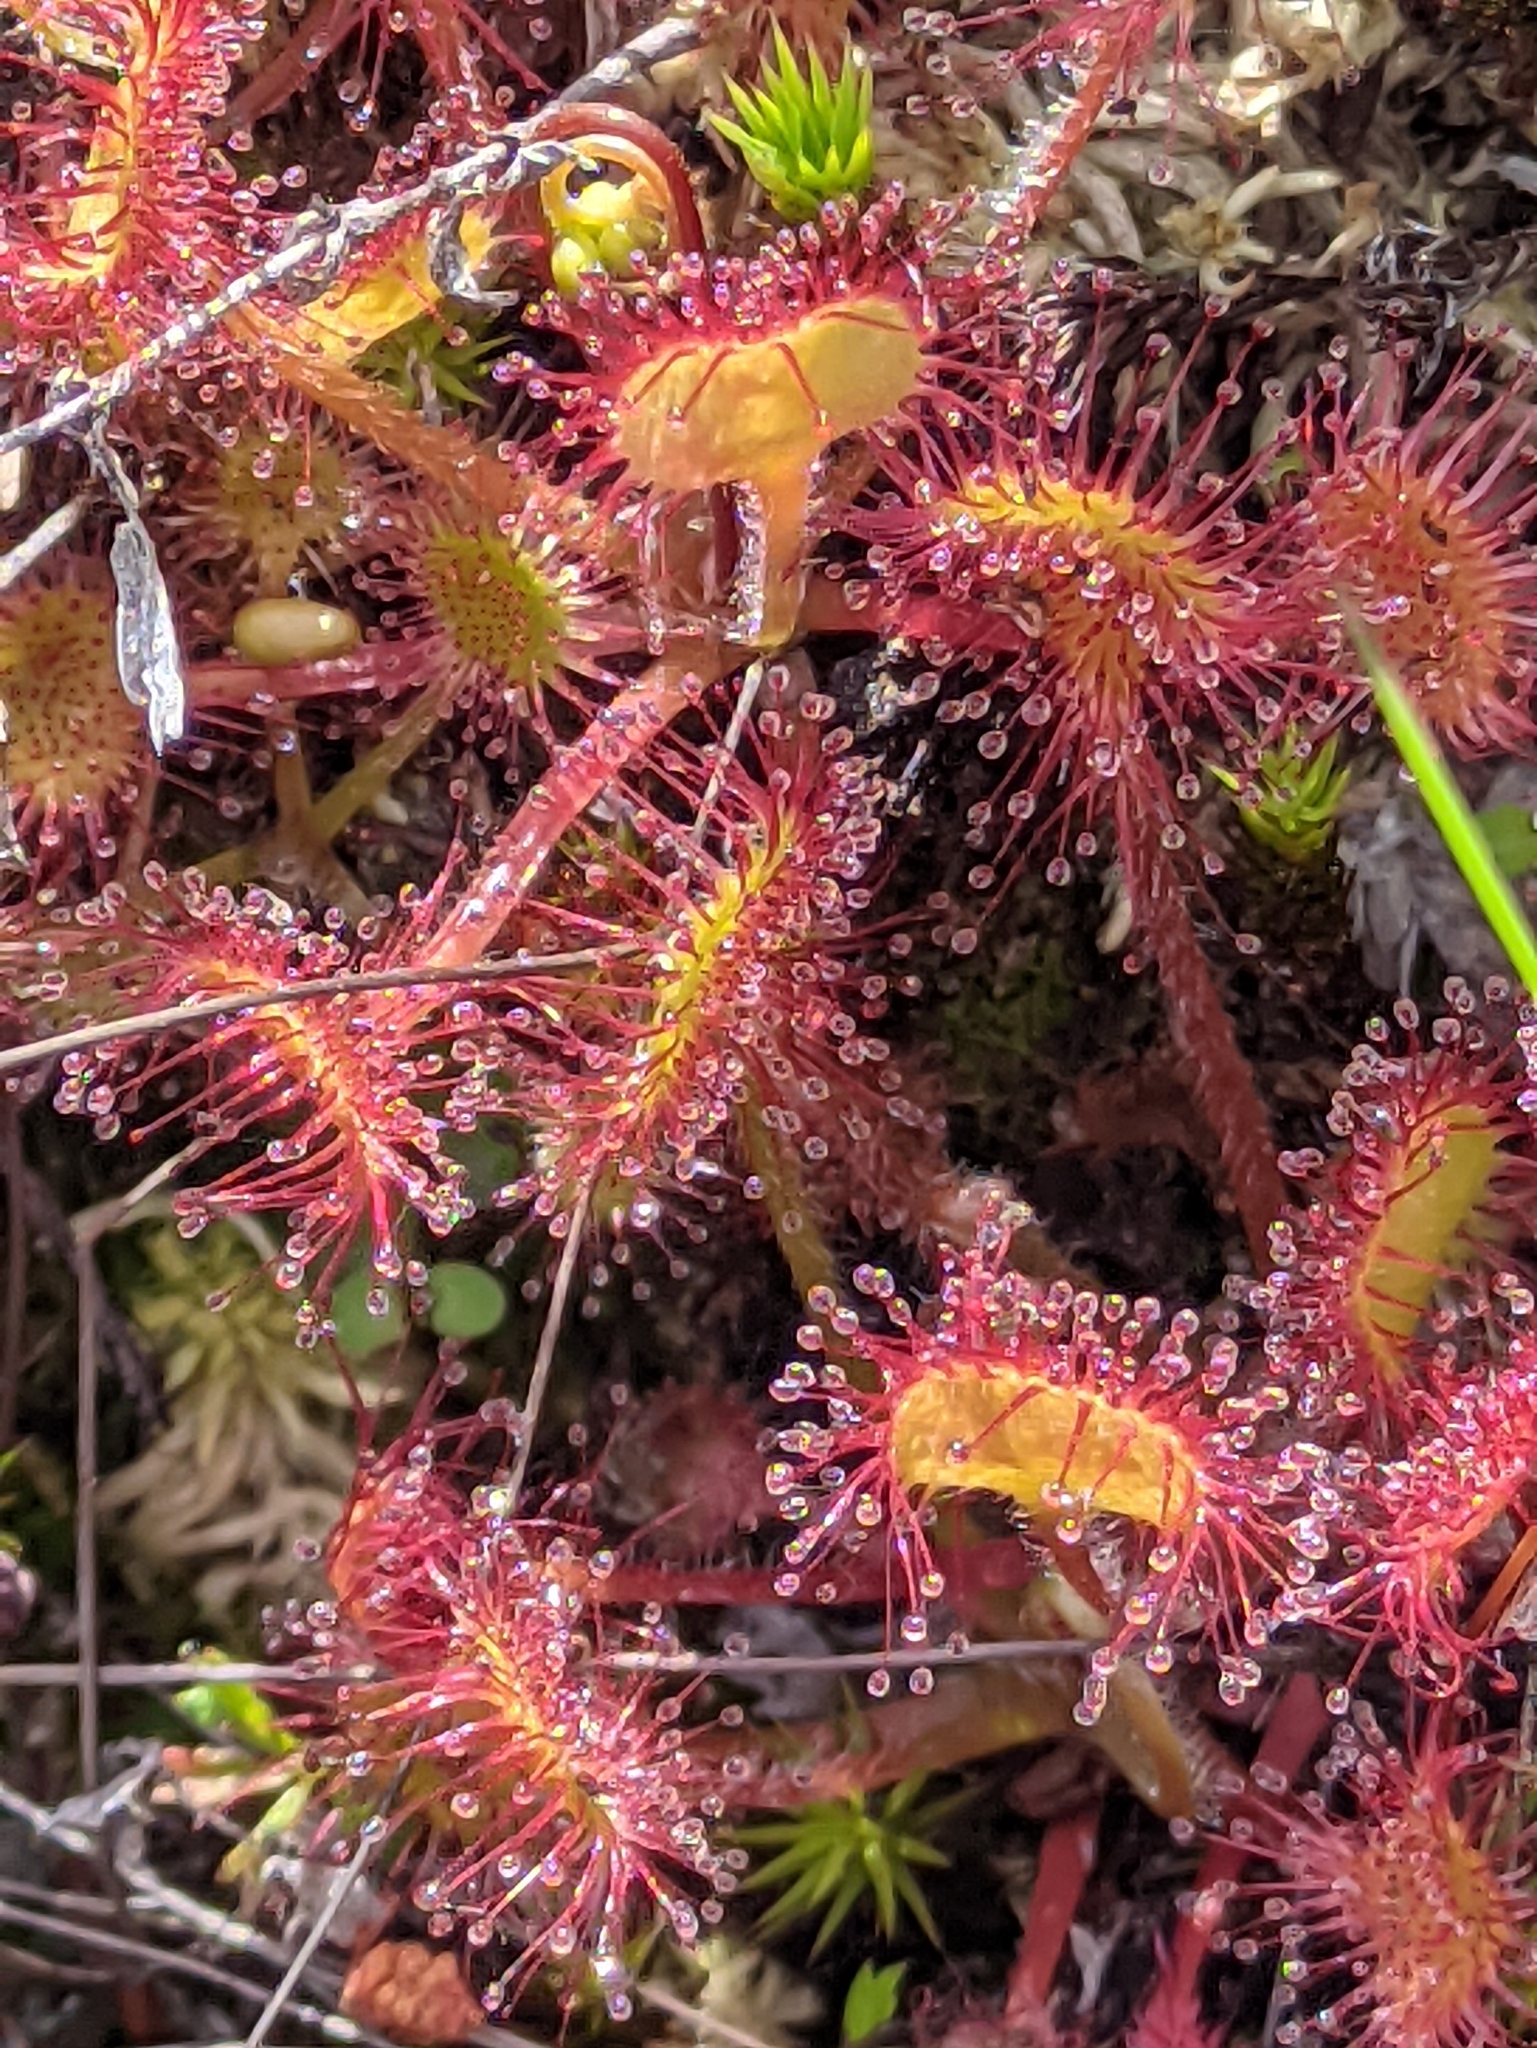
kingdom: Plantae
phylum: Tracheophyta
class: Magnoliopsida
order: Caryophyllales
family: Droseraceae
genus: Drosera
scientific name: Drosera rotundifolia
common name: Round-leaved sundew
